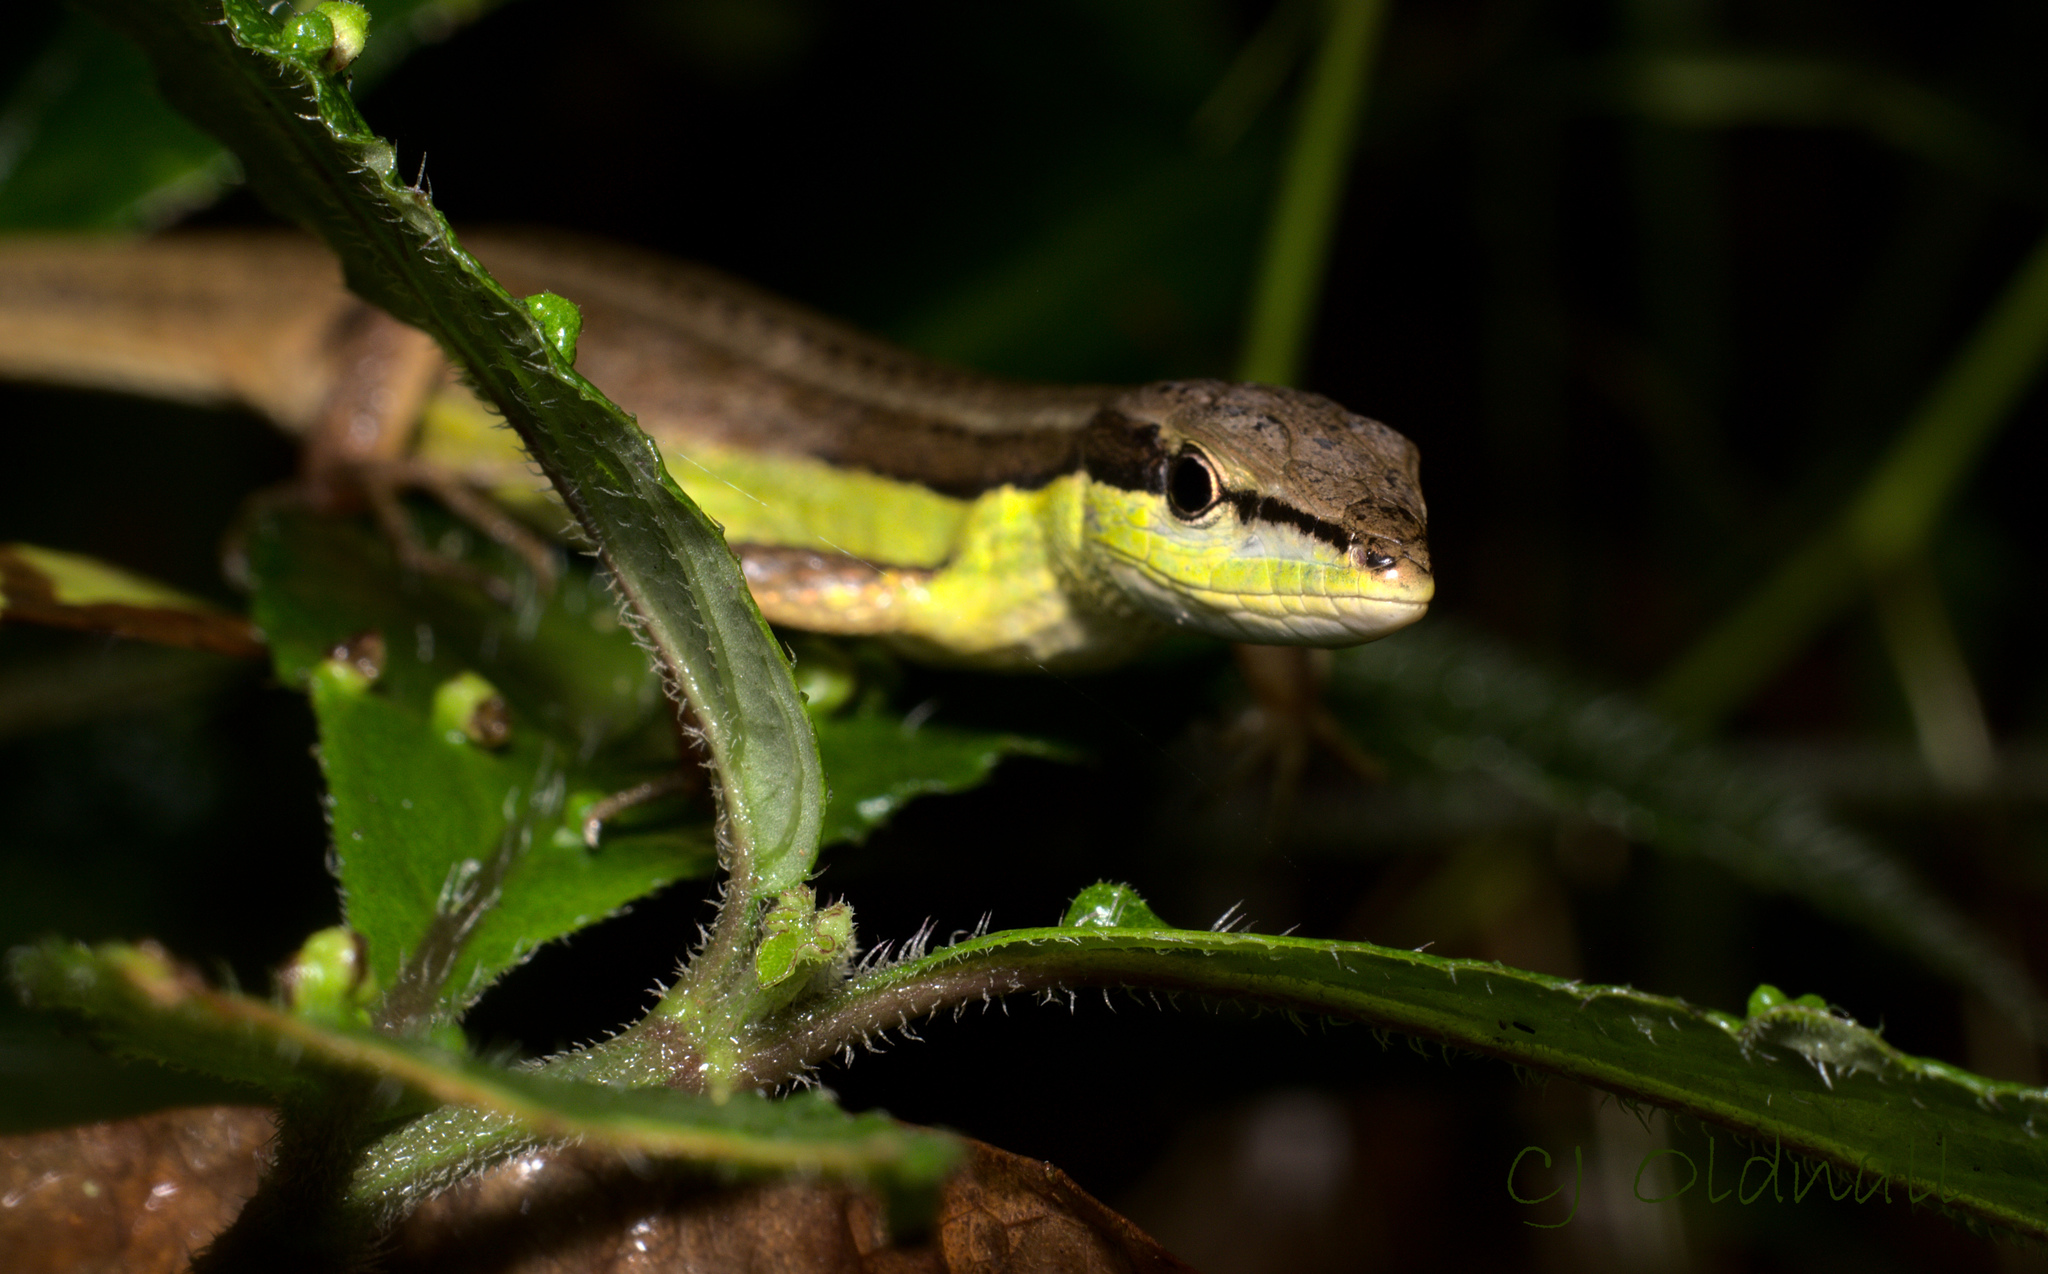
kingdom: Animalia
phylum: Chordata
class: Squamata
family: Lacertidae
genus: Takydromus
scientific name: Takydromus sexlineatus
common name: Asian grass lizard
